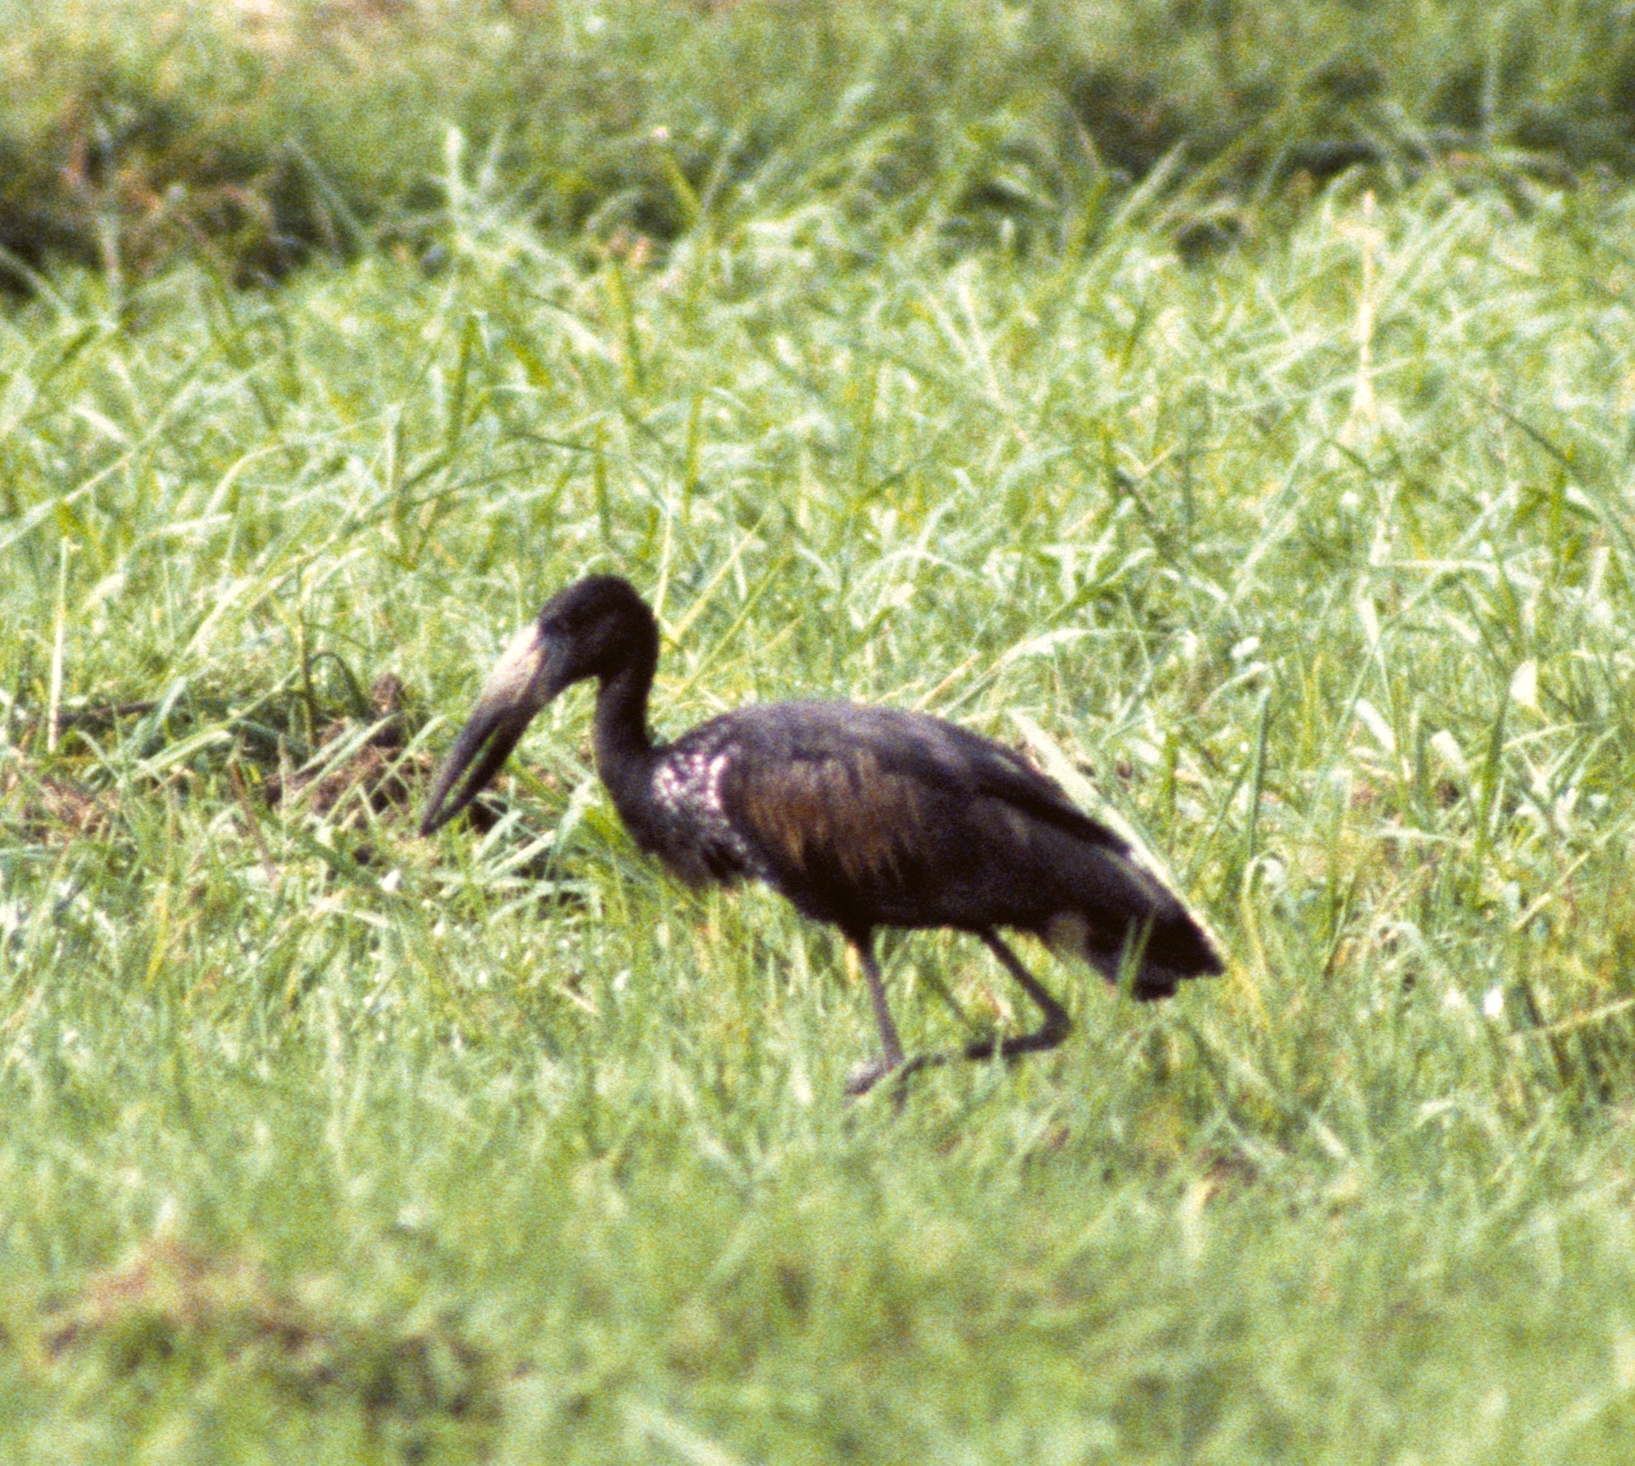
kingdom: Animalia
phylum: Chordata
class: Aves
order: Ciconiiformes
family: Ciconiidae
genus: Anastomus
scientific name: Anastomus lamelligerus
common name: African openbill
